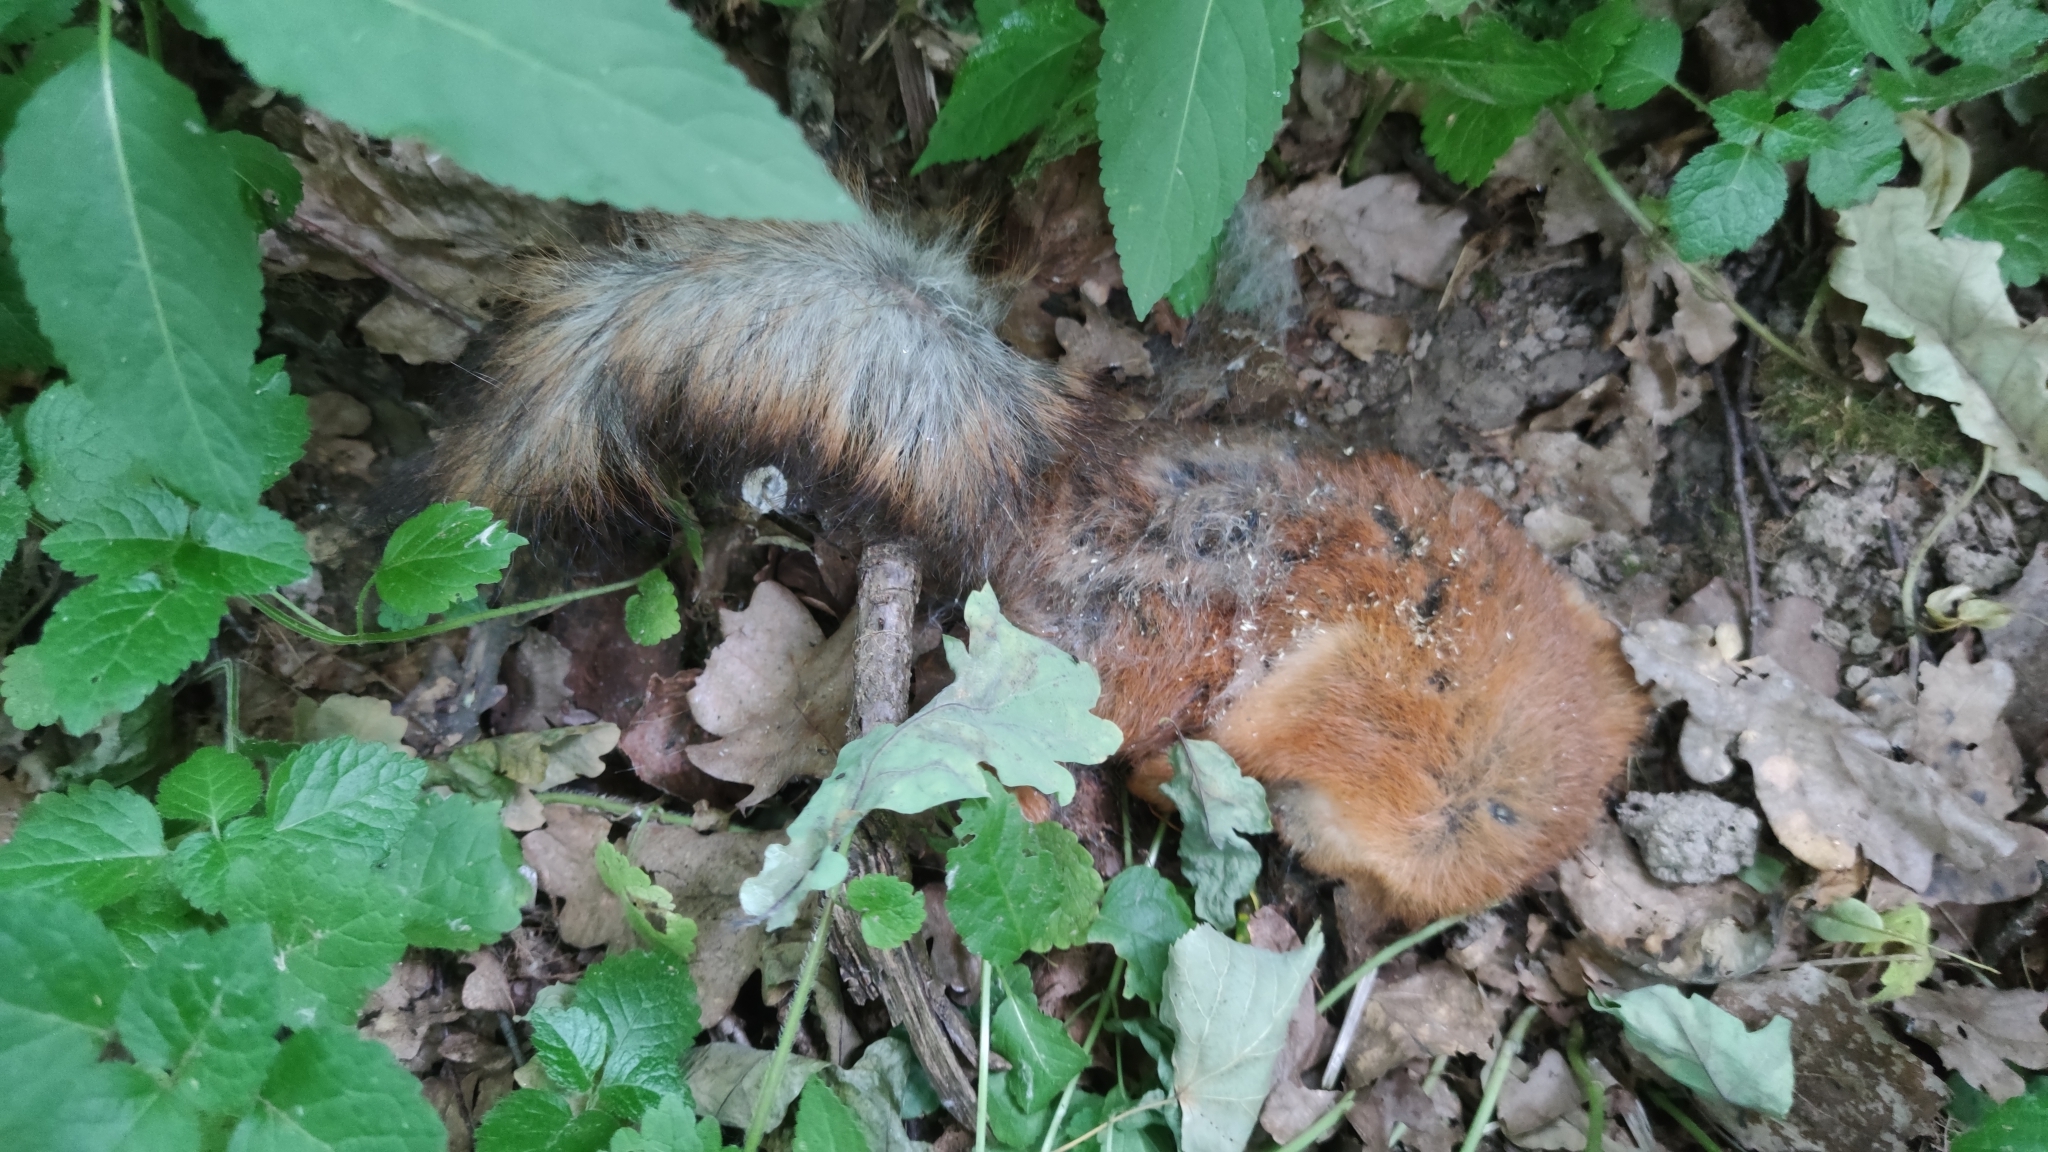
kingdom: Animalia
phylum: Chordata
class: Mammalia
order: Rodentia
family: Sciuridae
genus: Sciurus
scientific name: Sciurus vulgaris
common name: Eurasian red squirrel
